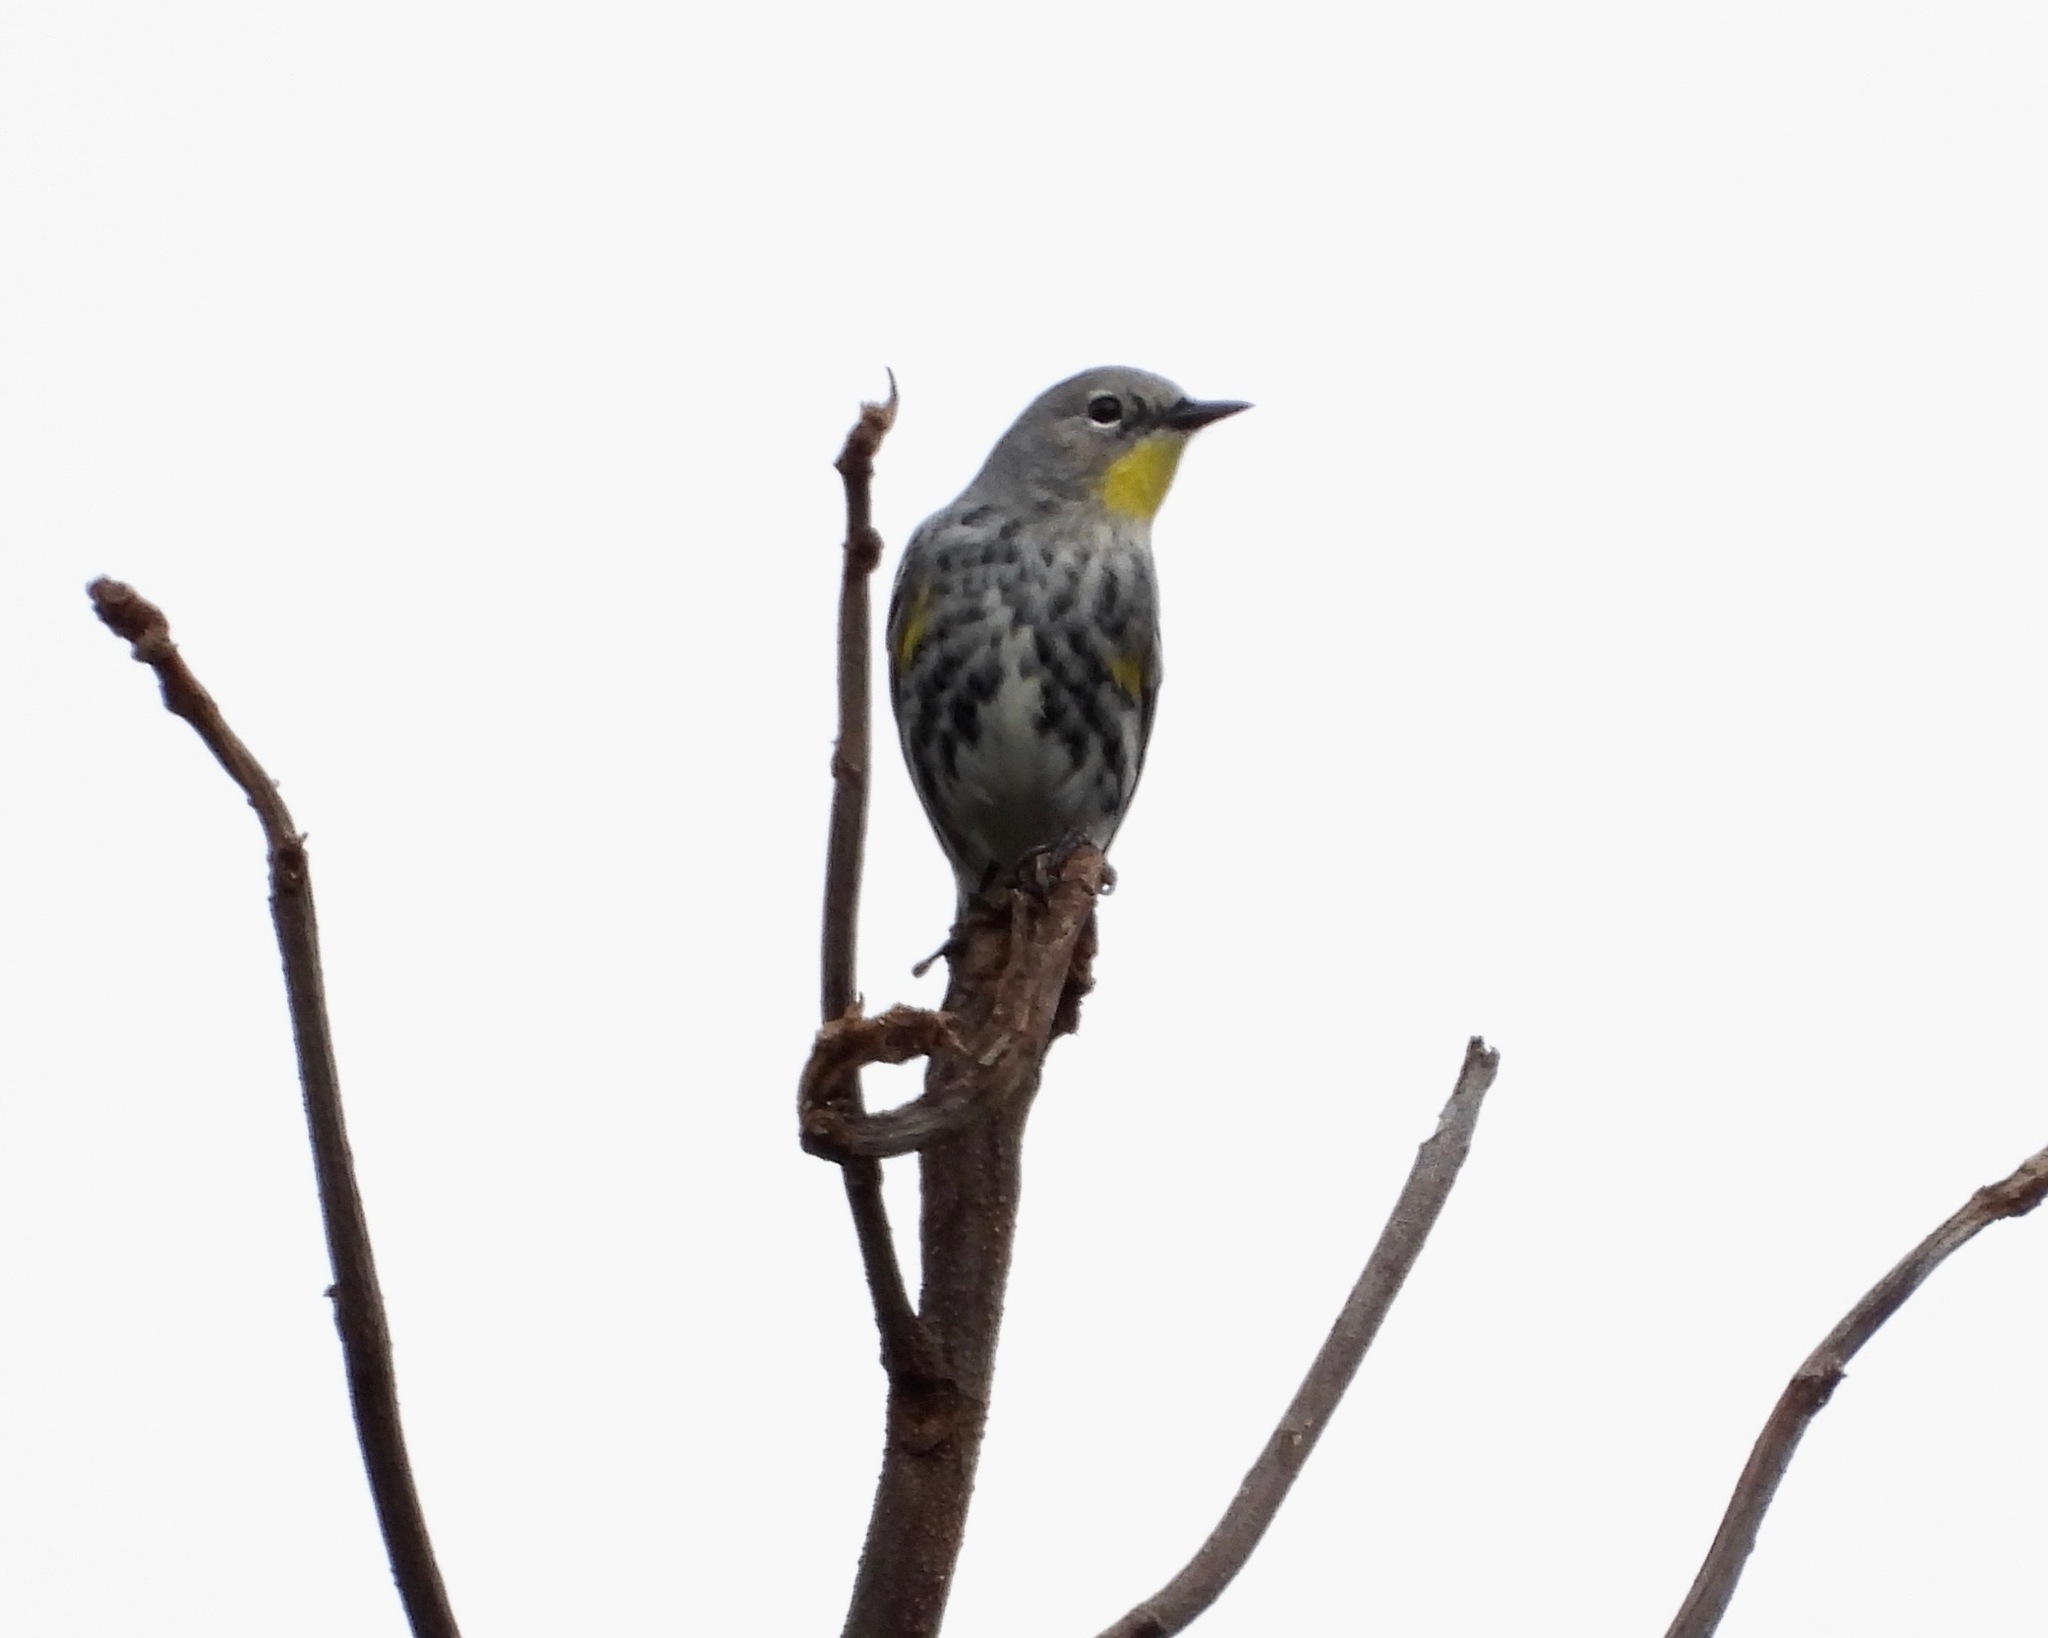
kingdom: Animalia
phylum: Chordata
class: Aves
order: Passeriformes
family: Parulidae
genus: Setophaga
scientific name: Setophaga auduboni
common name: Audubon's warbler
